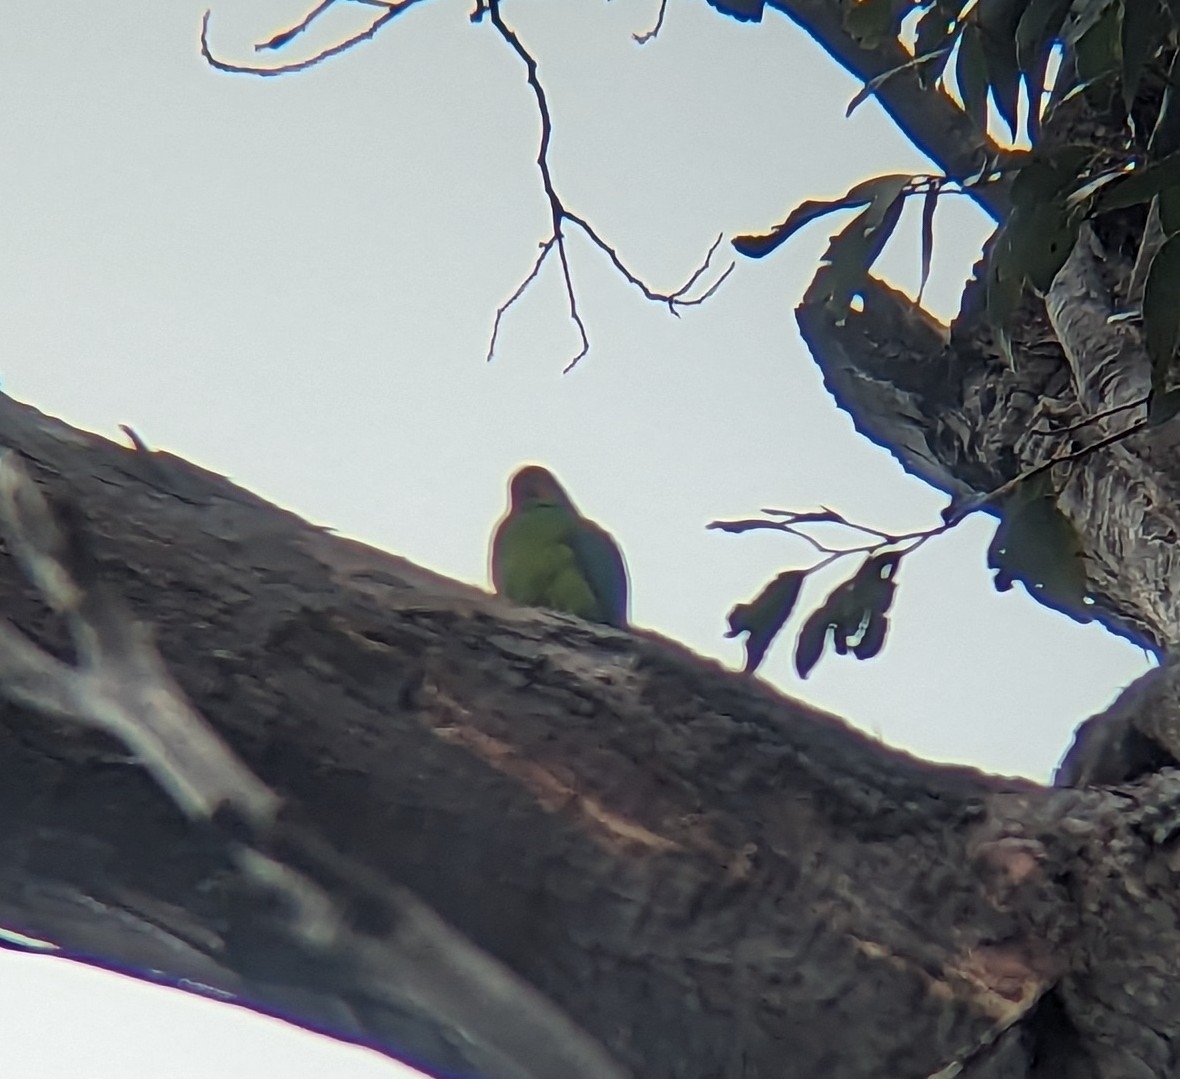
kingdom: Animalia
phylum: Chordata
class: Aves
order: Psittaciformes
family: Psittacidae
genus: Platycercus
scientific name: Platycercus eximius
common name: Eastern rosella
